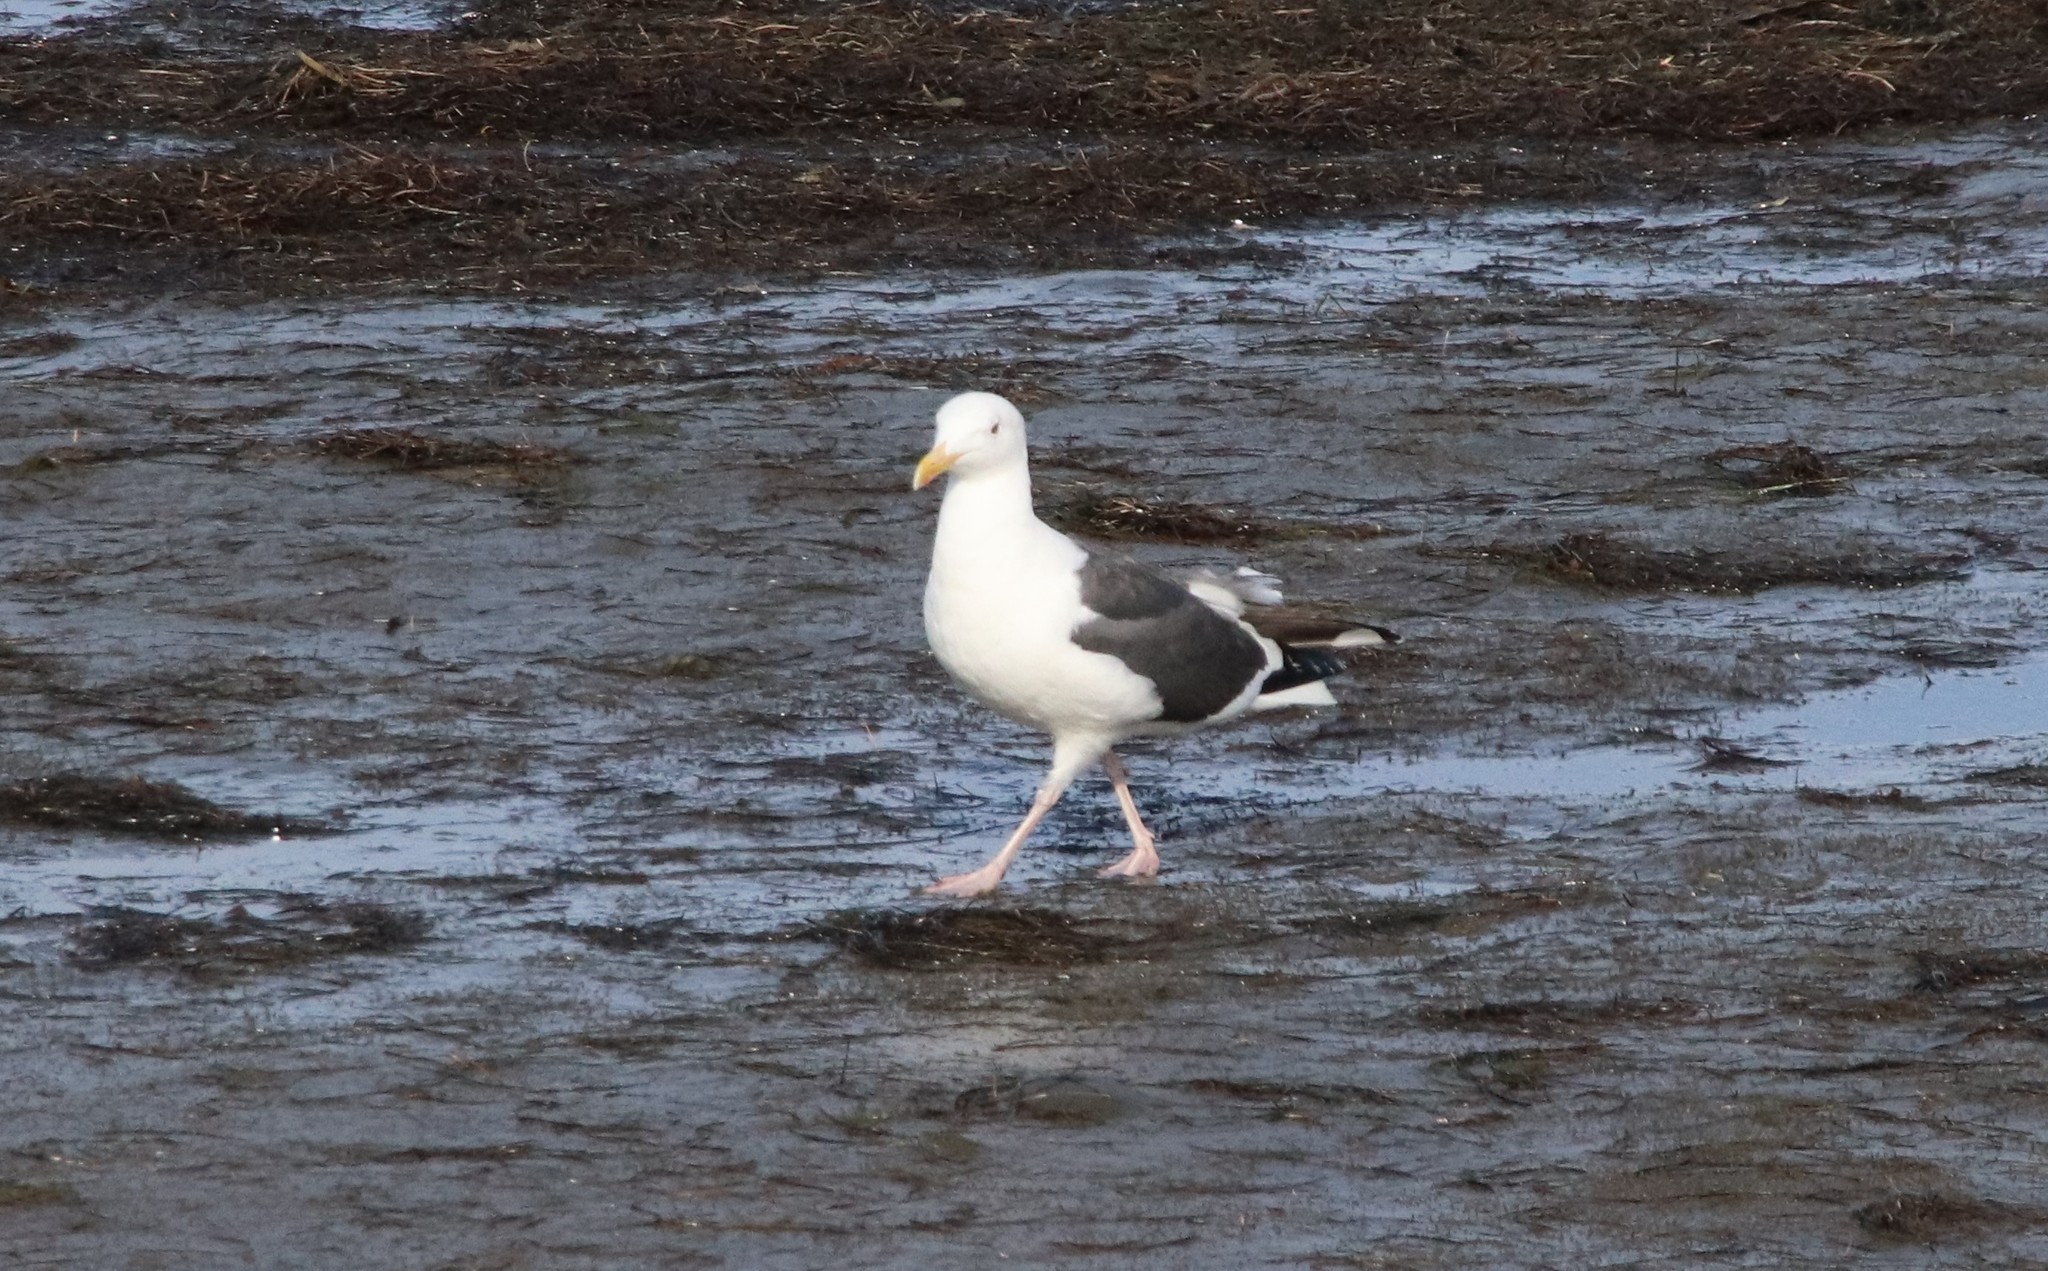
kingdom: Animalia
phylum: Chordata
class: Aves
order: Charadriiformes
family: Laridae
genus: Larus
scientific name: Larus occidentalis
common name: Western gull
